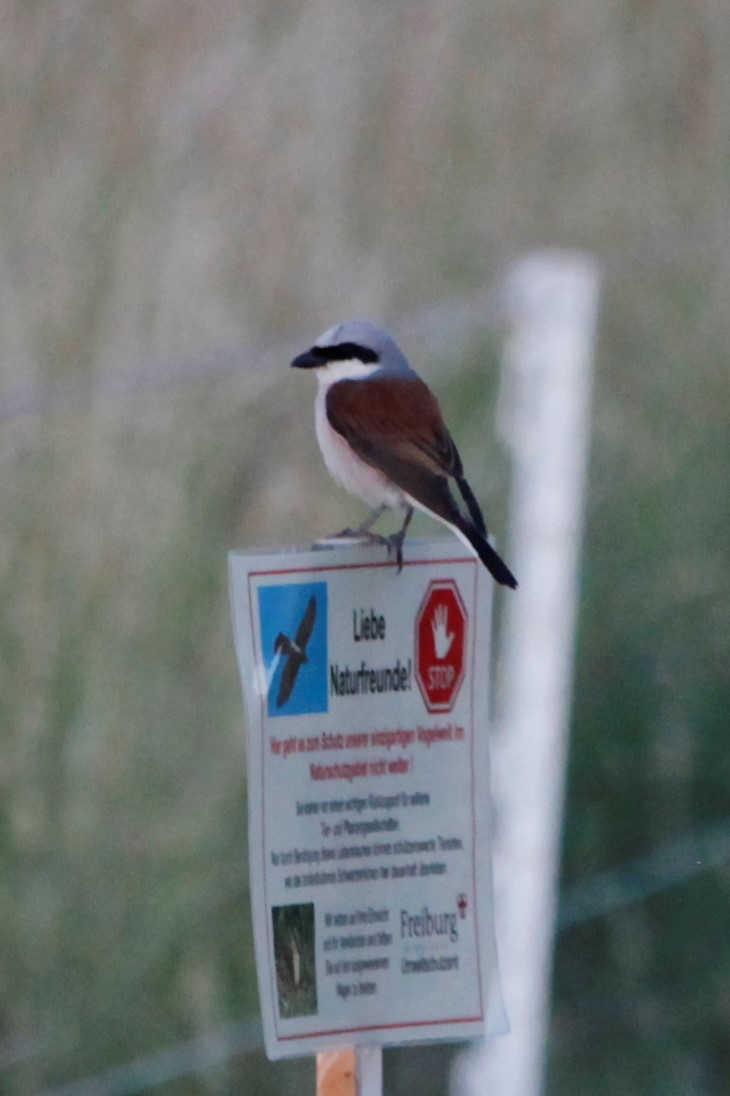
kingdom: Animalia
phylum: Chordata
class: Aves
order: Passeriformes
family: Laniidae
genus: Lanius
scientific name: Lanius collurio
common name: Red-backed shrike
